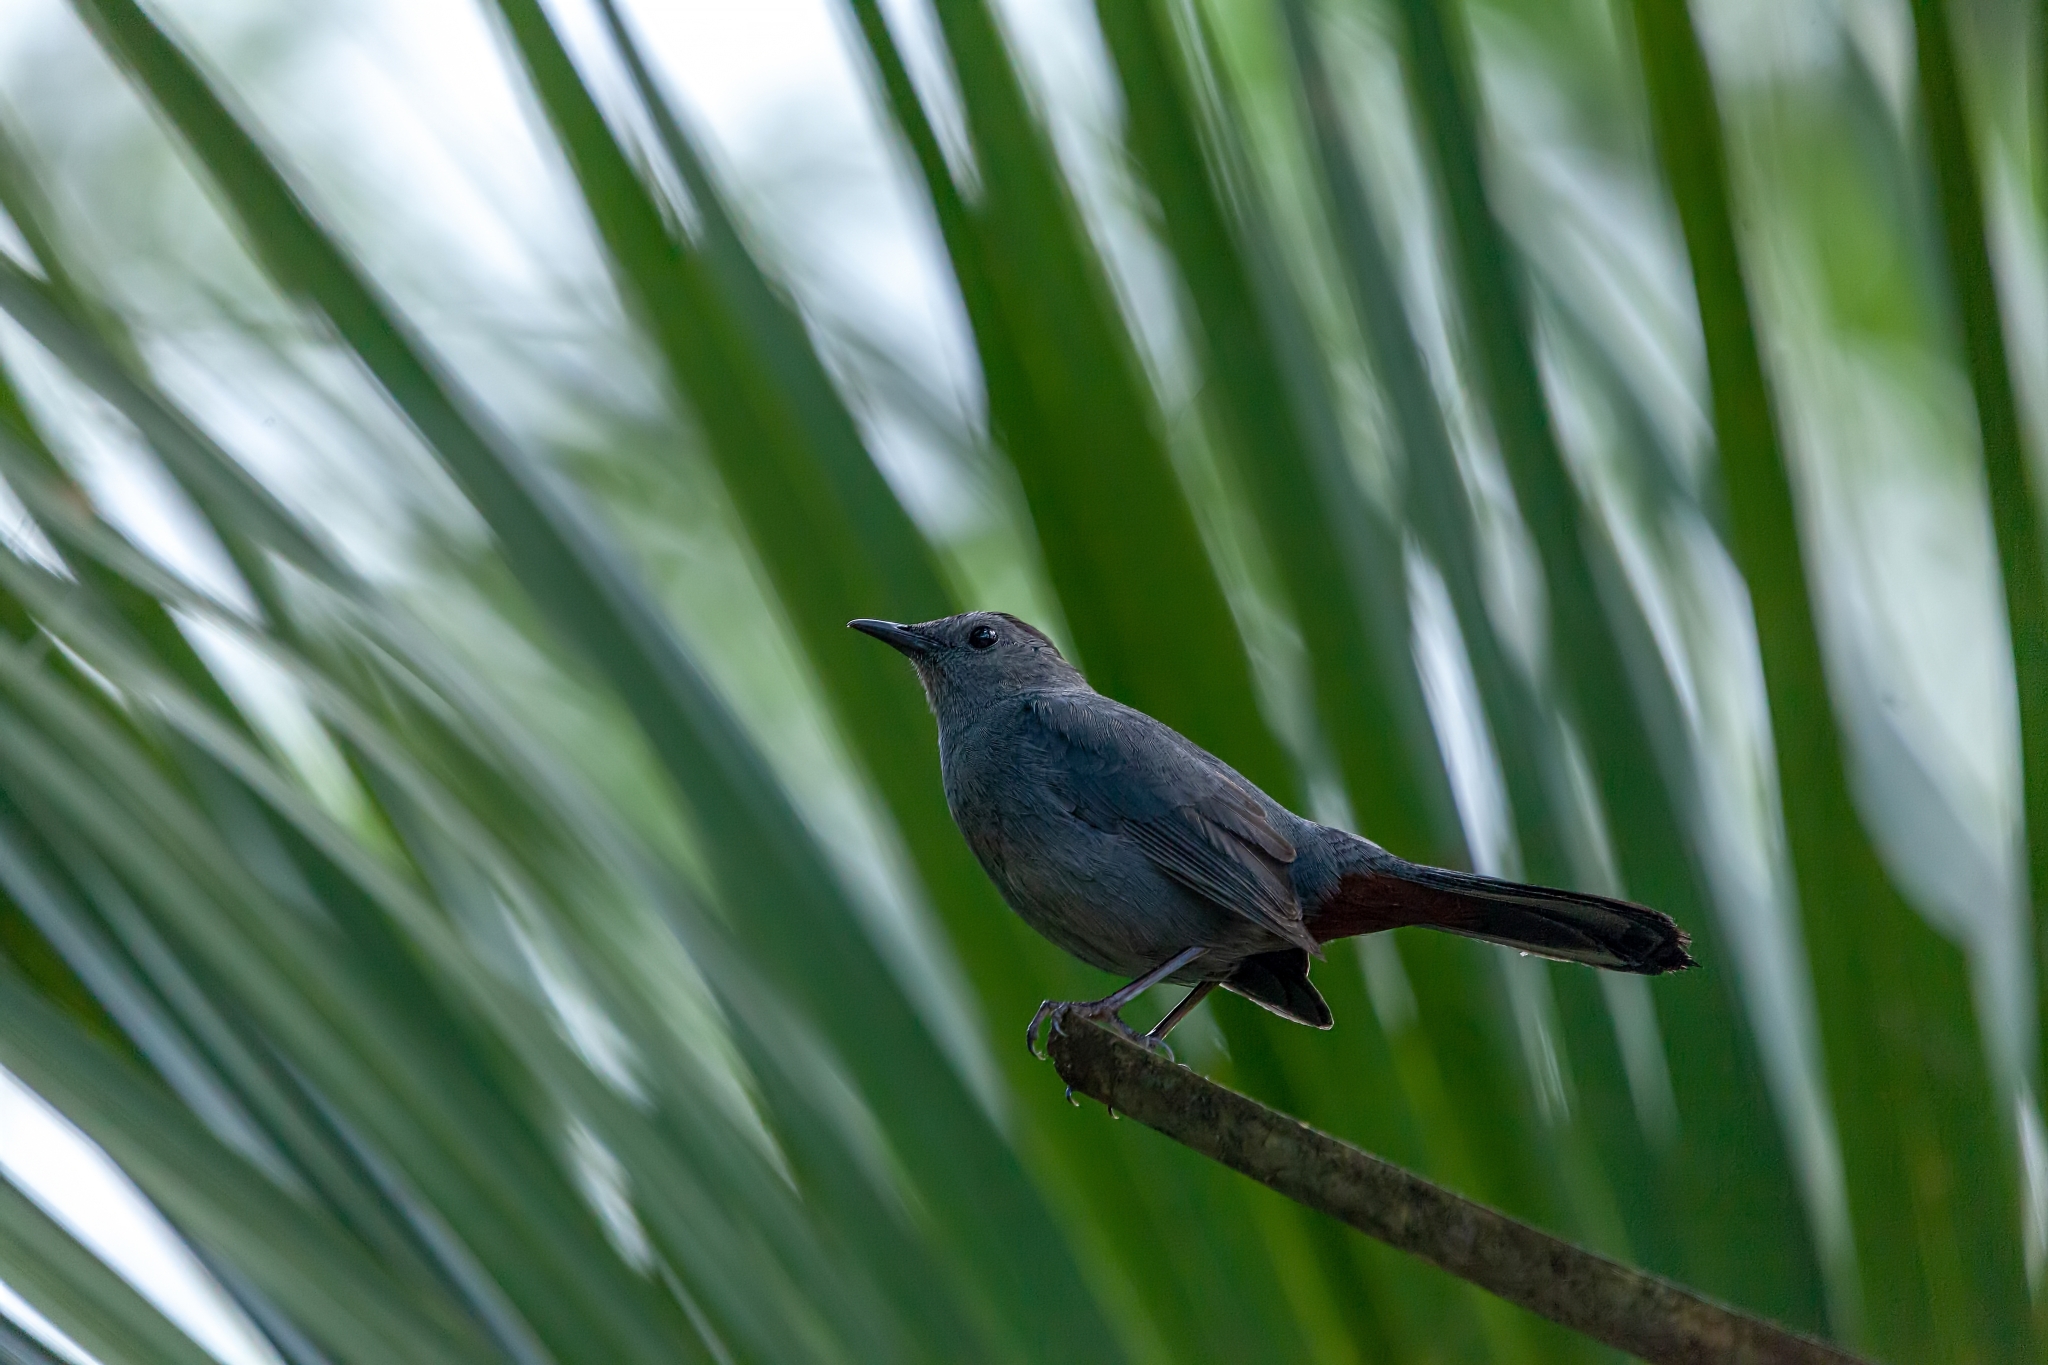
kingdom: Animalia
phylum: Chordata
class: Aves
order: Passeriformes
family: Mimidae
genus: Dumetella
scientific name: Dumetella carolinensis
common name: Gray catbird
